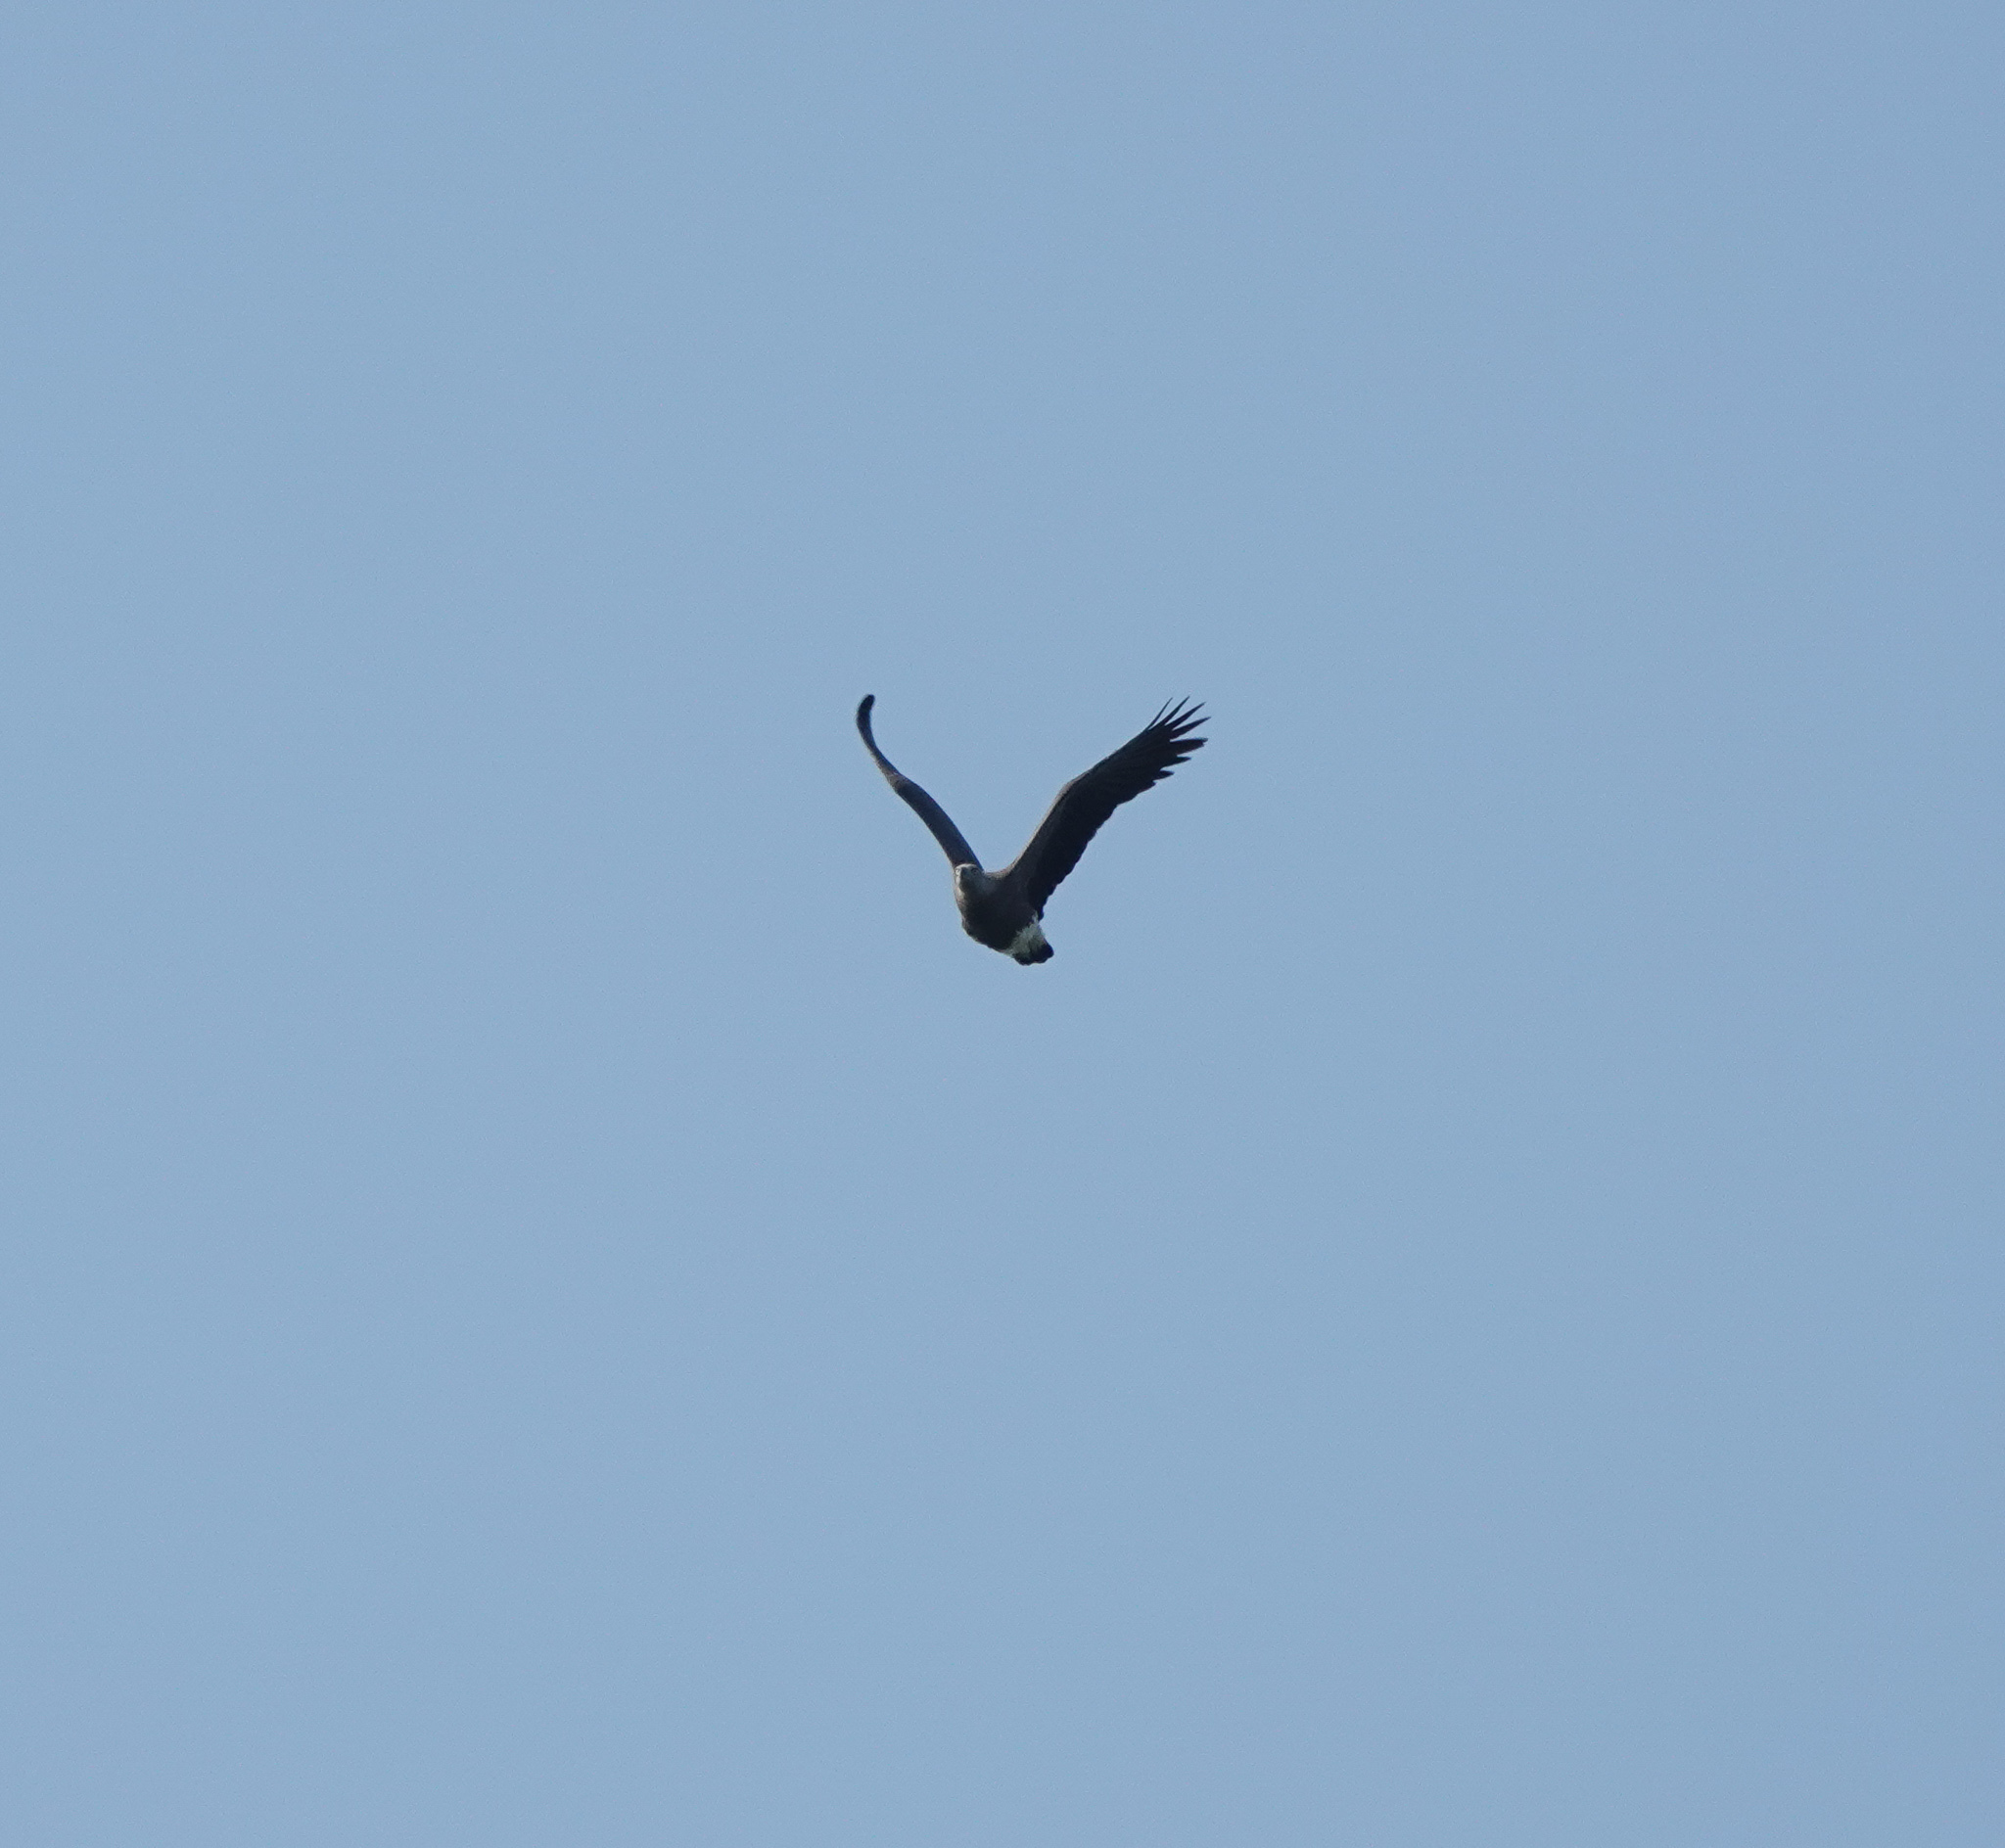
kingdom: Animalia
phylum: Chordata
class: Aves
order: Accipitriformes
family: Accipitridae
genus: Icthyophaga
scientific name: Icthyophaga ichthyaetus
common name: Grey-headed fish eagle
